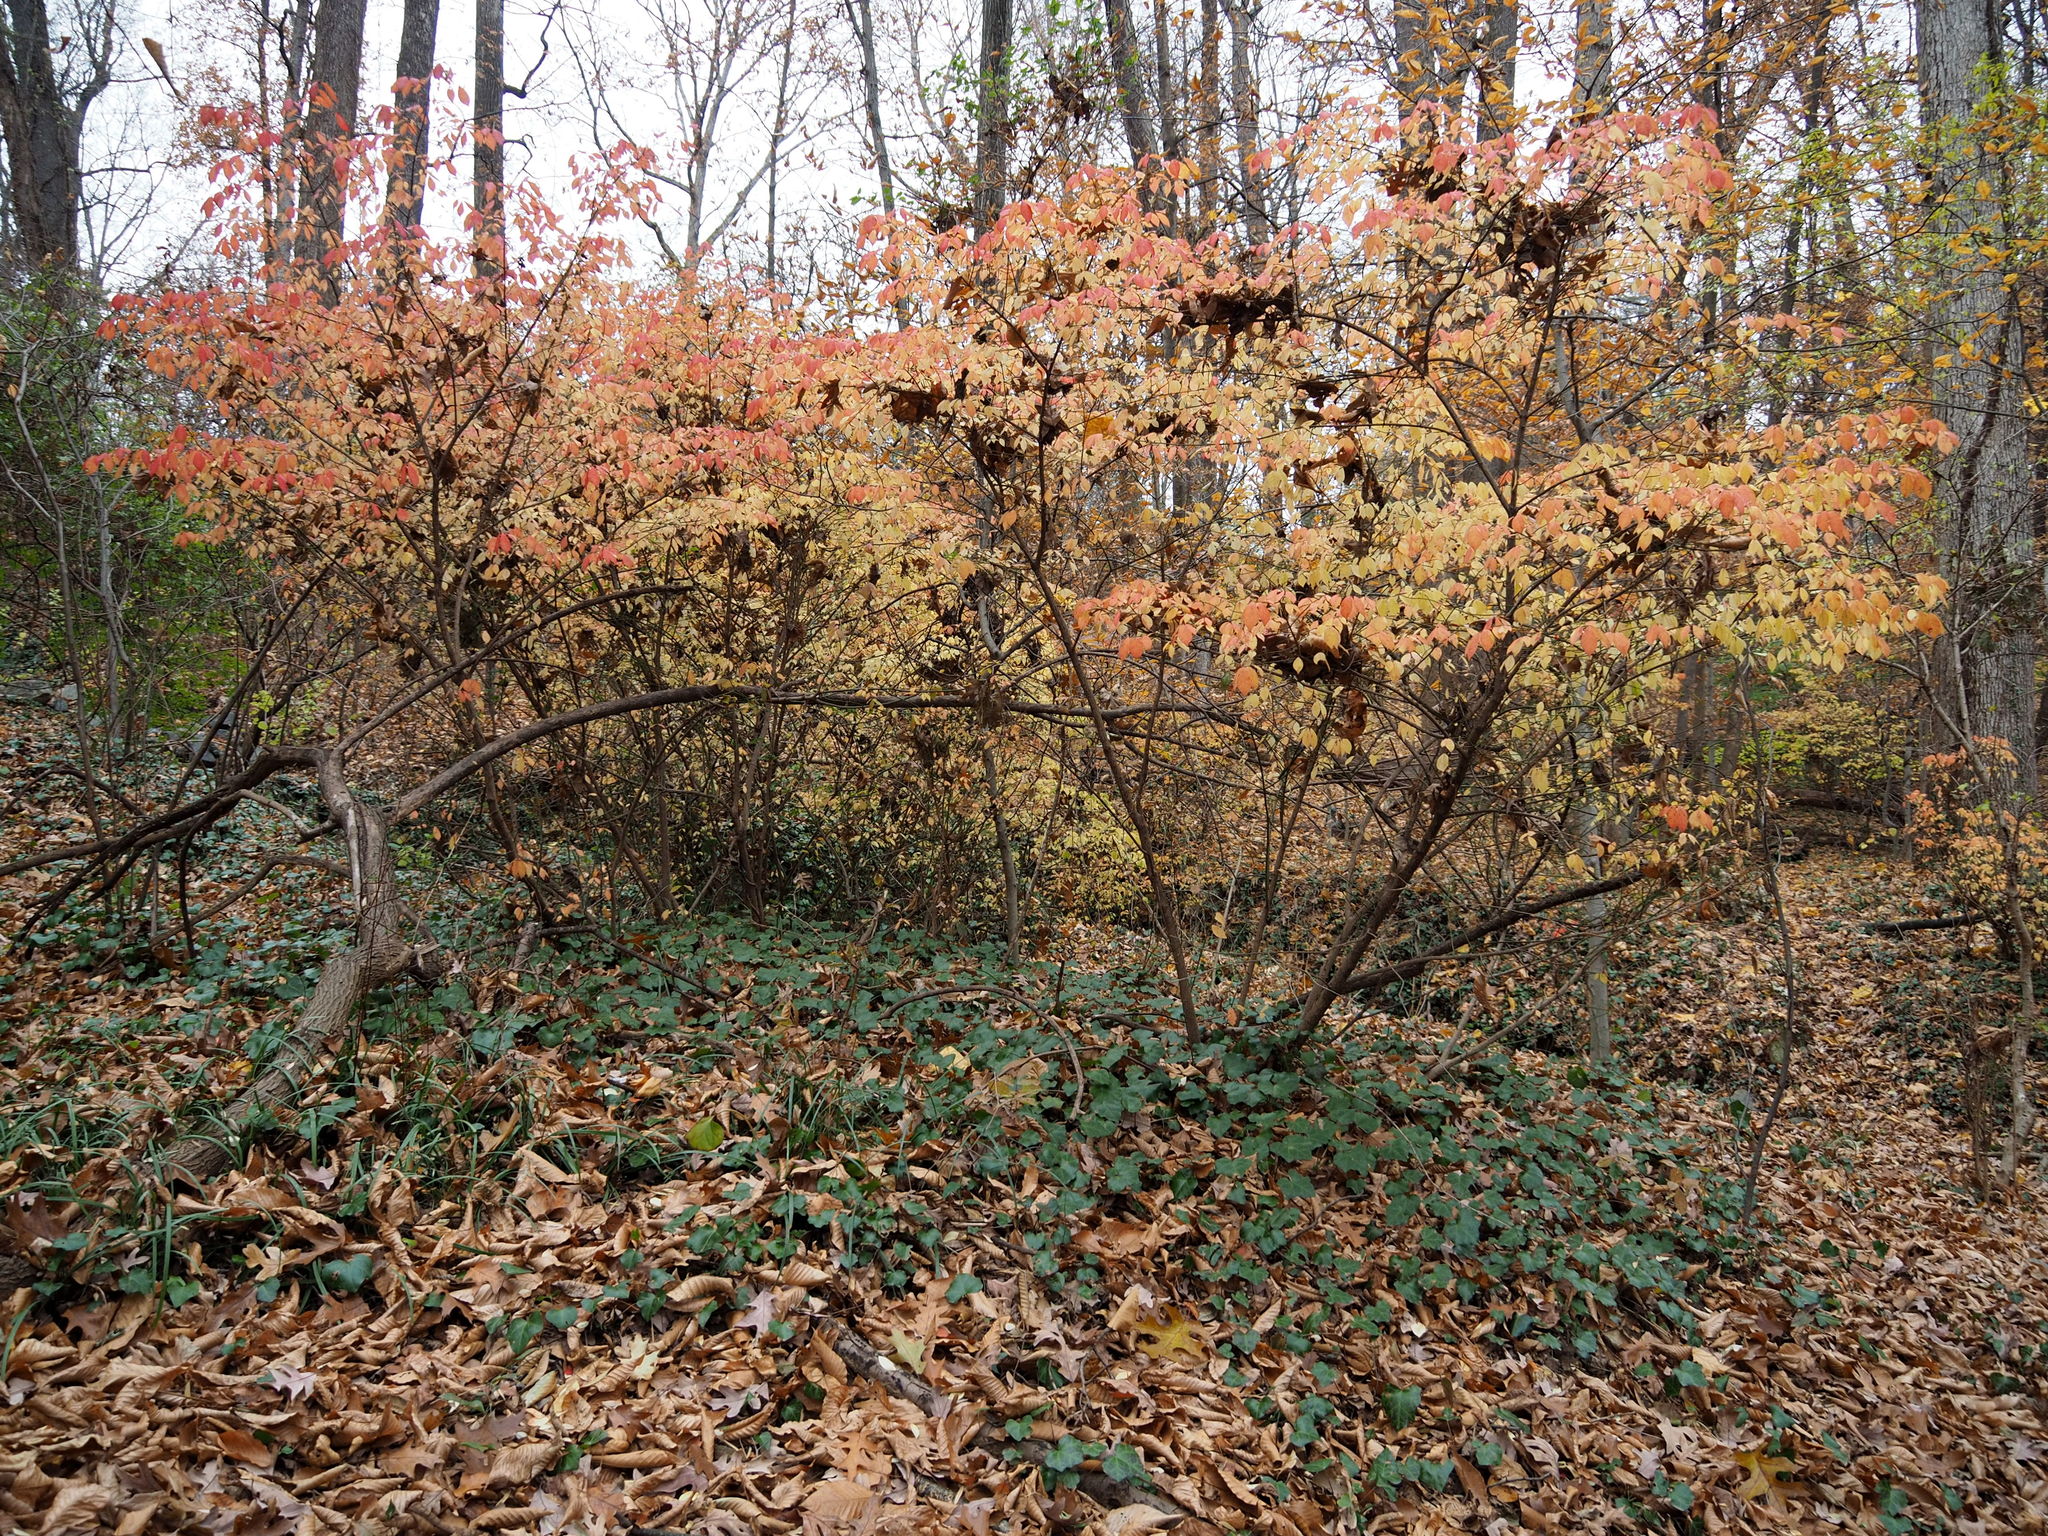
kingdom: Plantae
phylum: Tracheophyta
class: Magnoliopsida
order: Celastrales
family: Celastraceae
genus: Euonymus
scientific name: Euonymus alatus
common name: Winged euonymus
